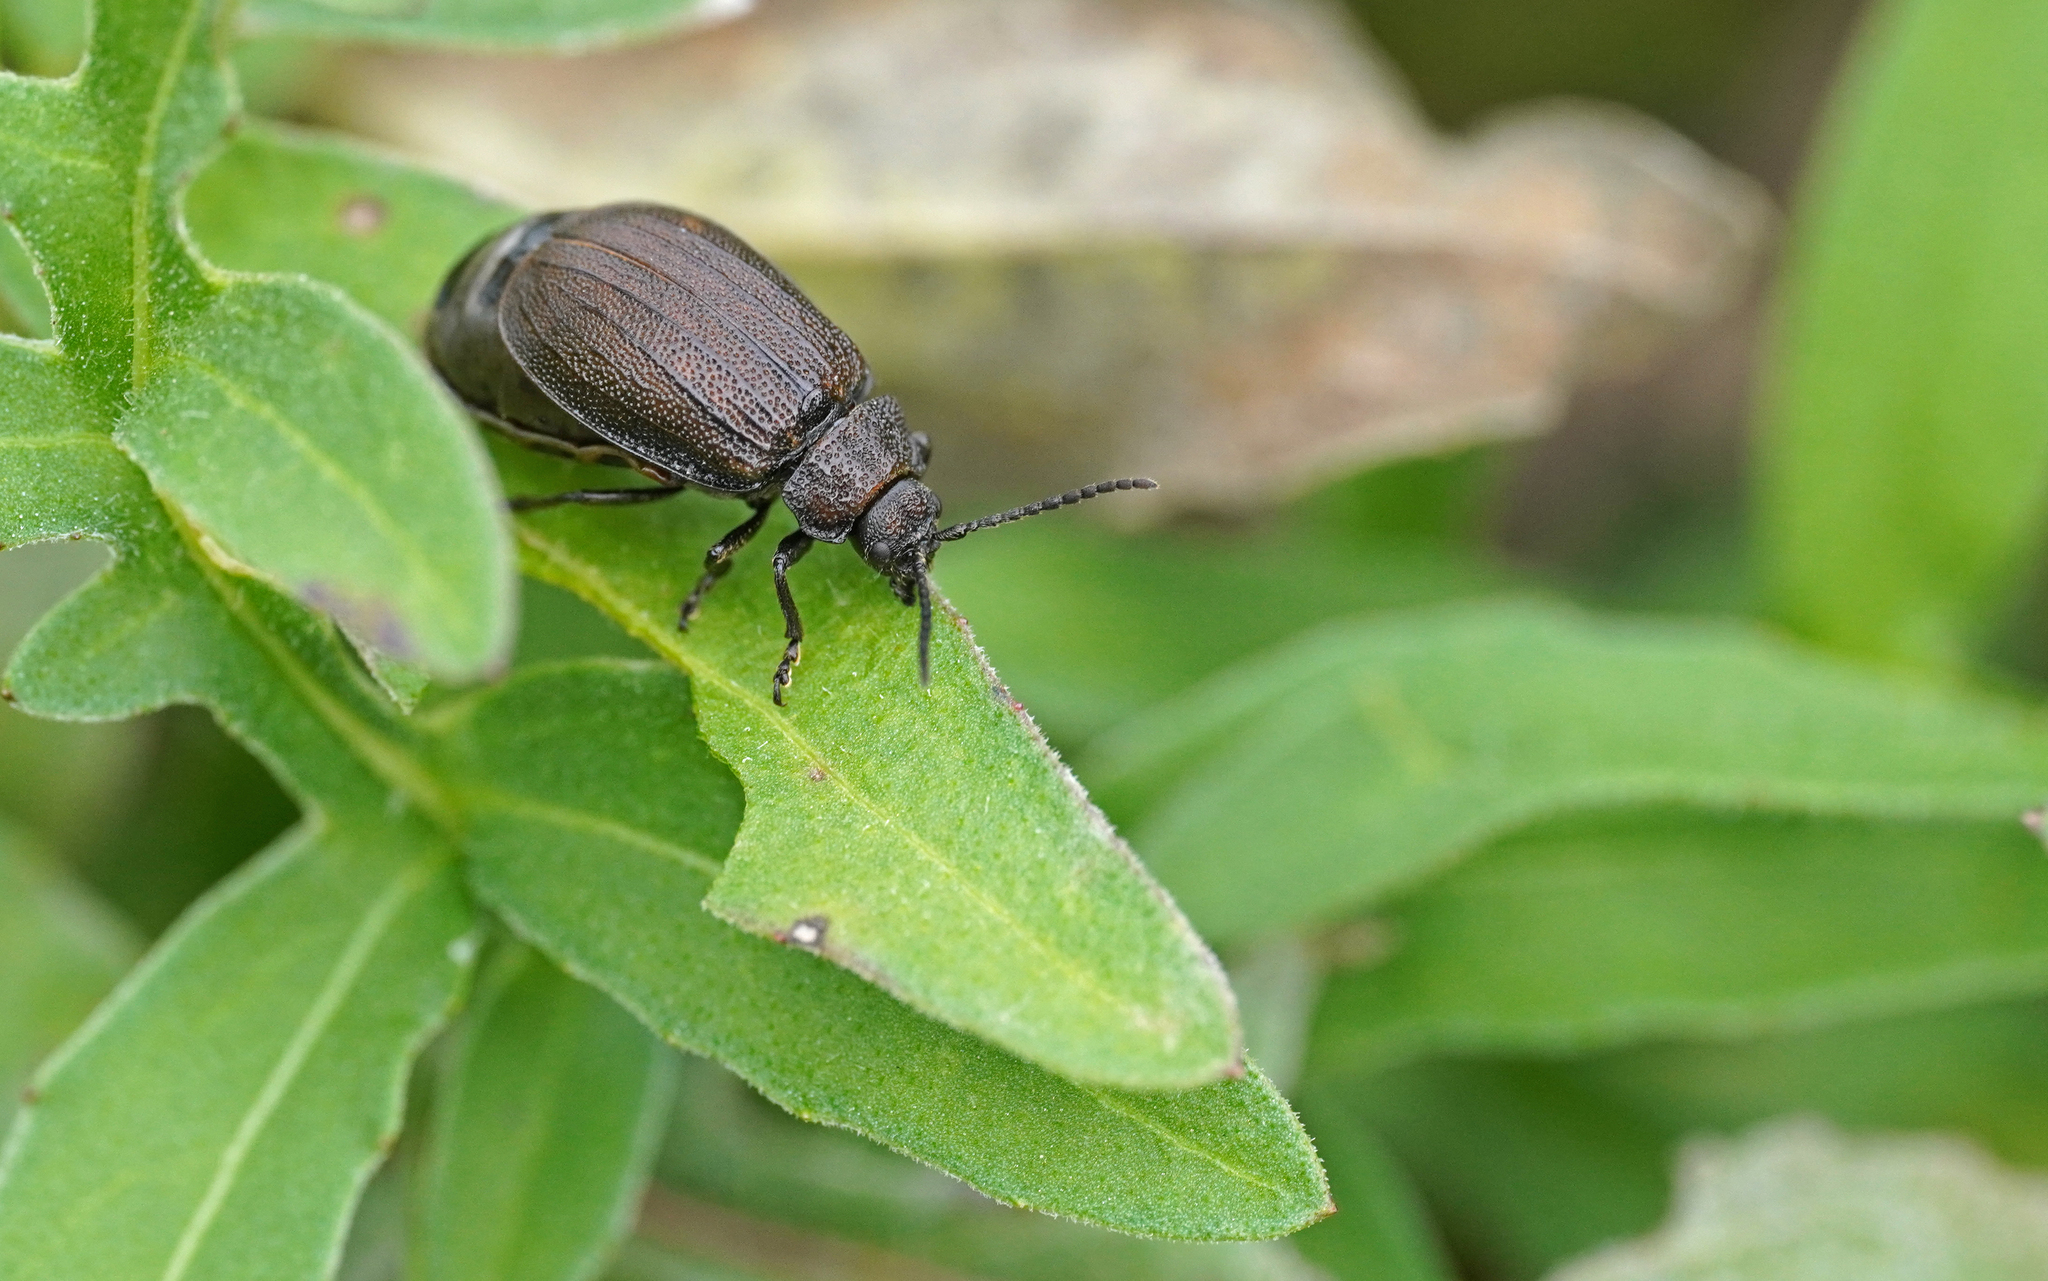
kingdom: Animalia
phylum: Arthropoda
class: Insecta
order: Coleoptera
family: Chrysomelidae
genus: Galeruca
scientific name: Galeruca pomonae
